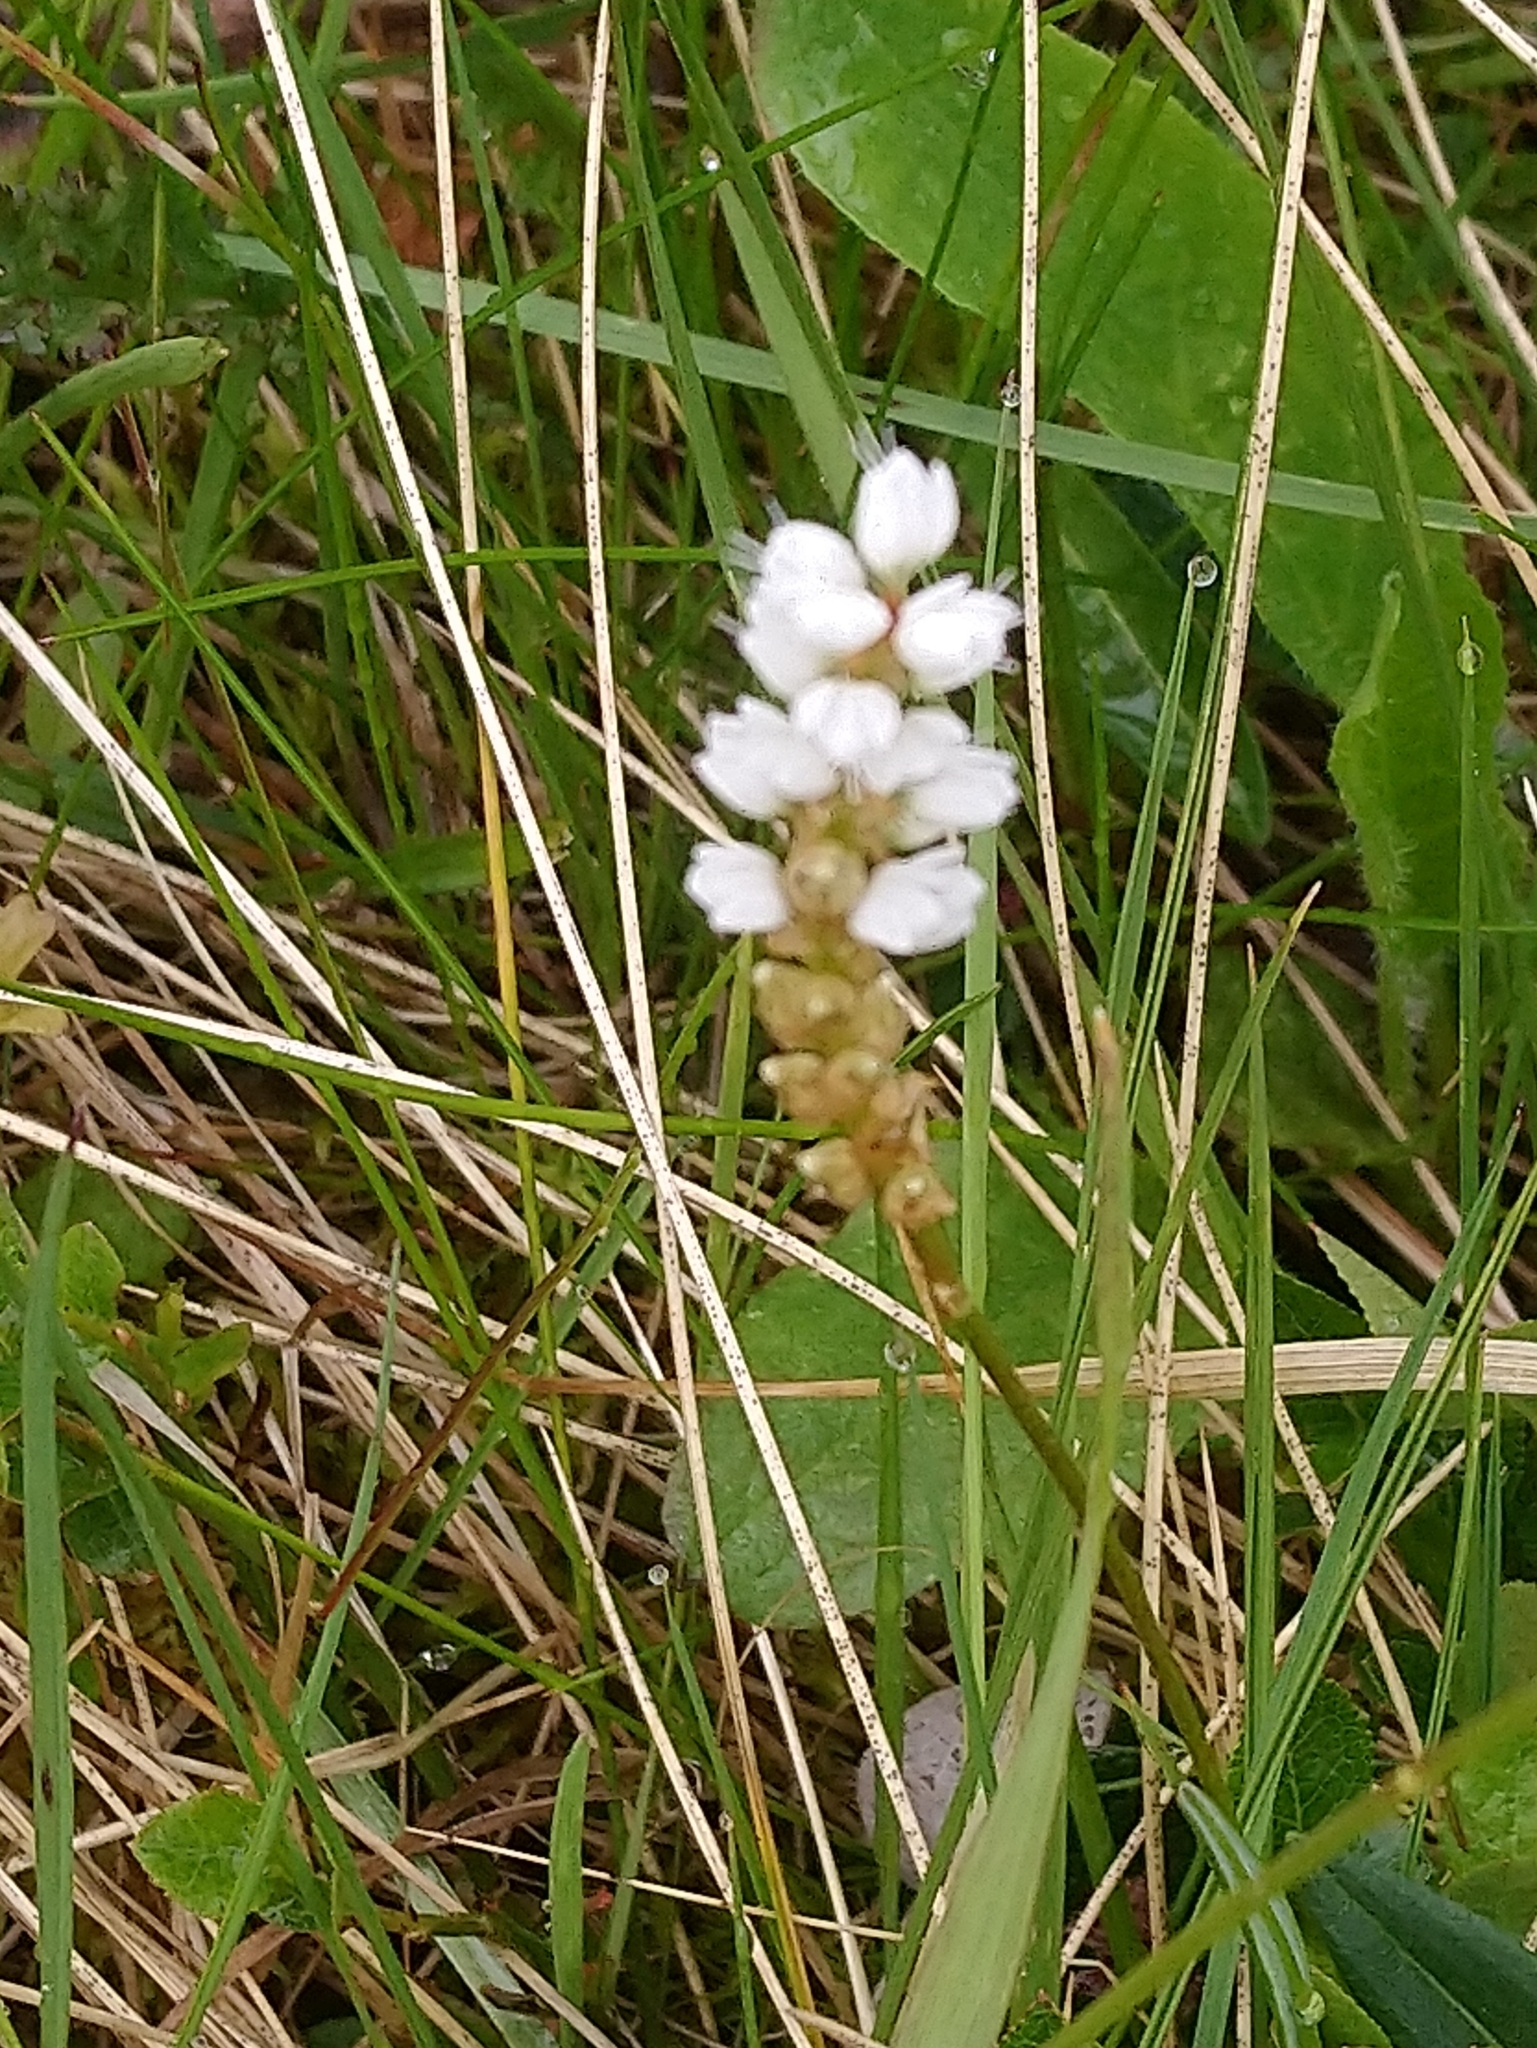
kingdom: Plantae
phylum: Tracheophyta
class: Magnoliopsida
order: Caryophyllales
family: Polygonaceae
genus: Bistorta
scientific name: Bistorta vivipara
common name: Alpine bistort
